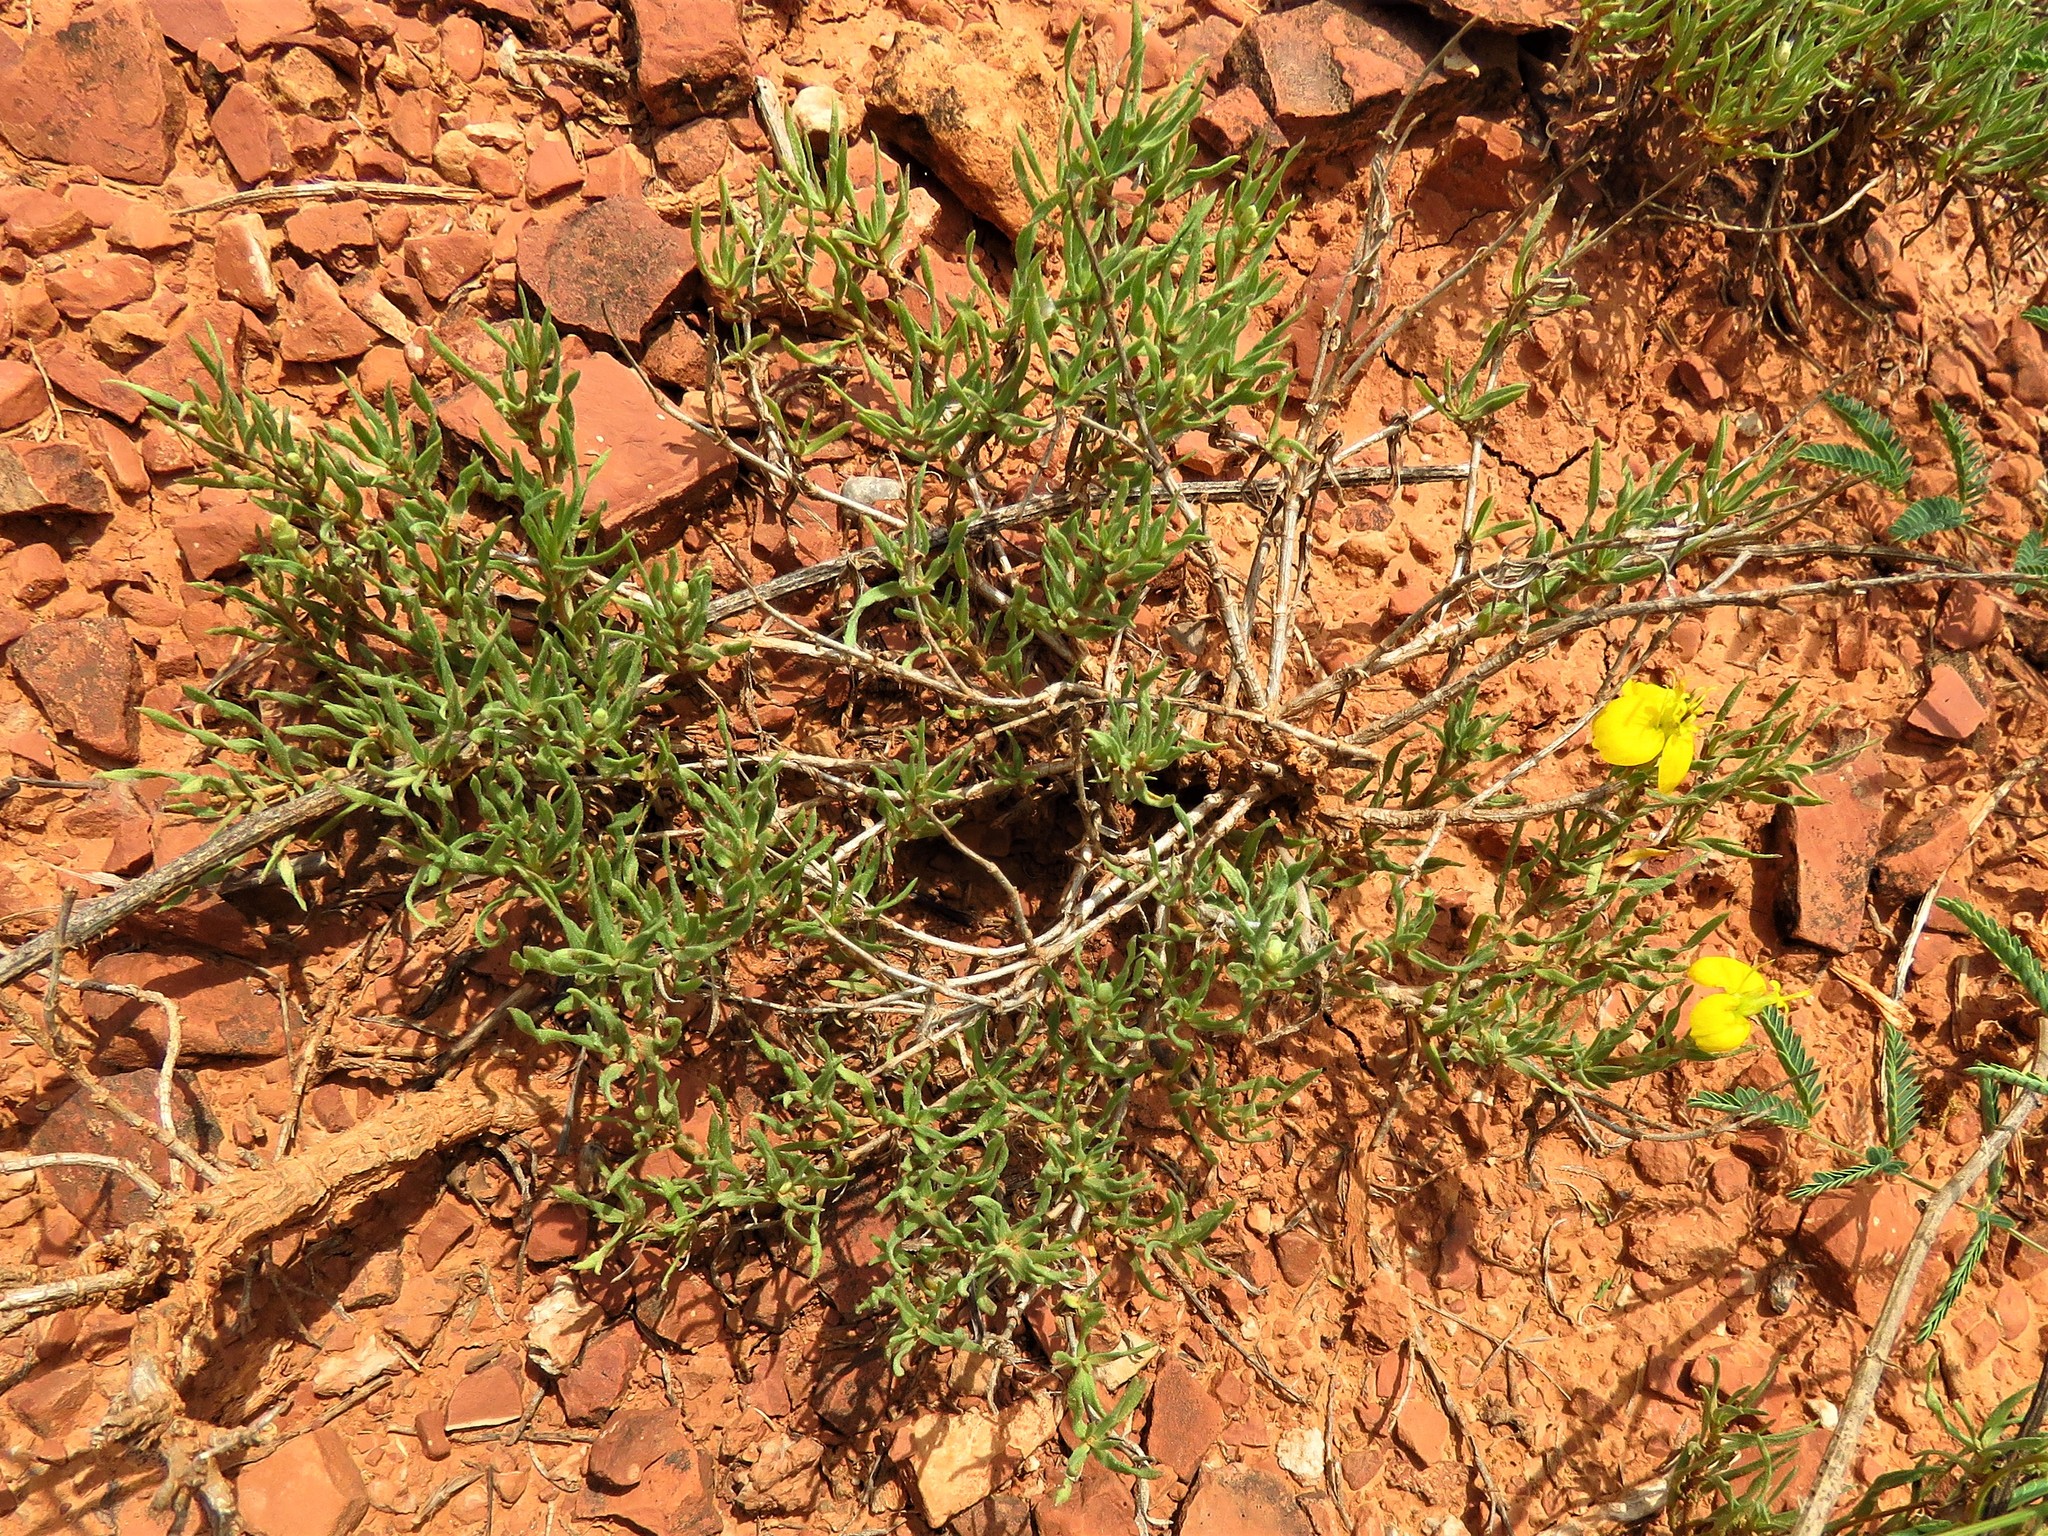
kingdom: Plantae
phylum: Tracheophyta
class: Magnoliopsida
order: Asterales
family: Asteraceae
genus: Zinnia
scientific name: Zinnia grandiflora
